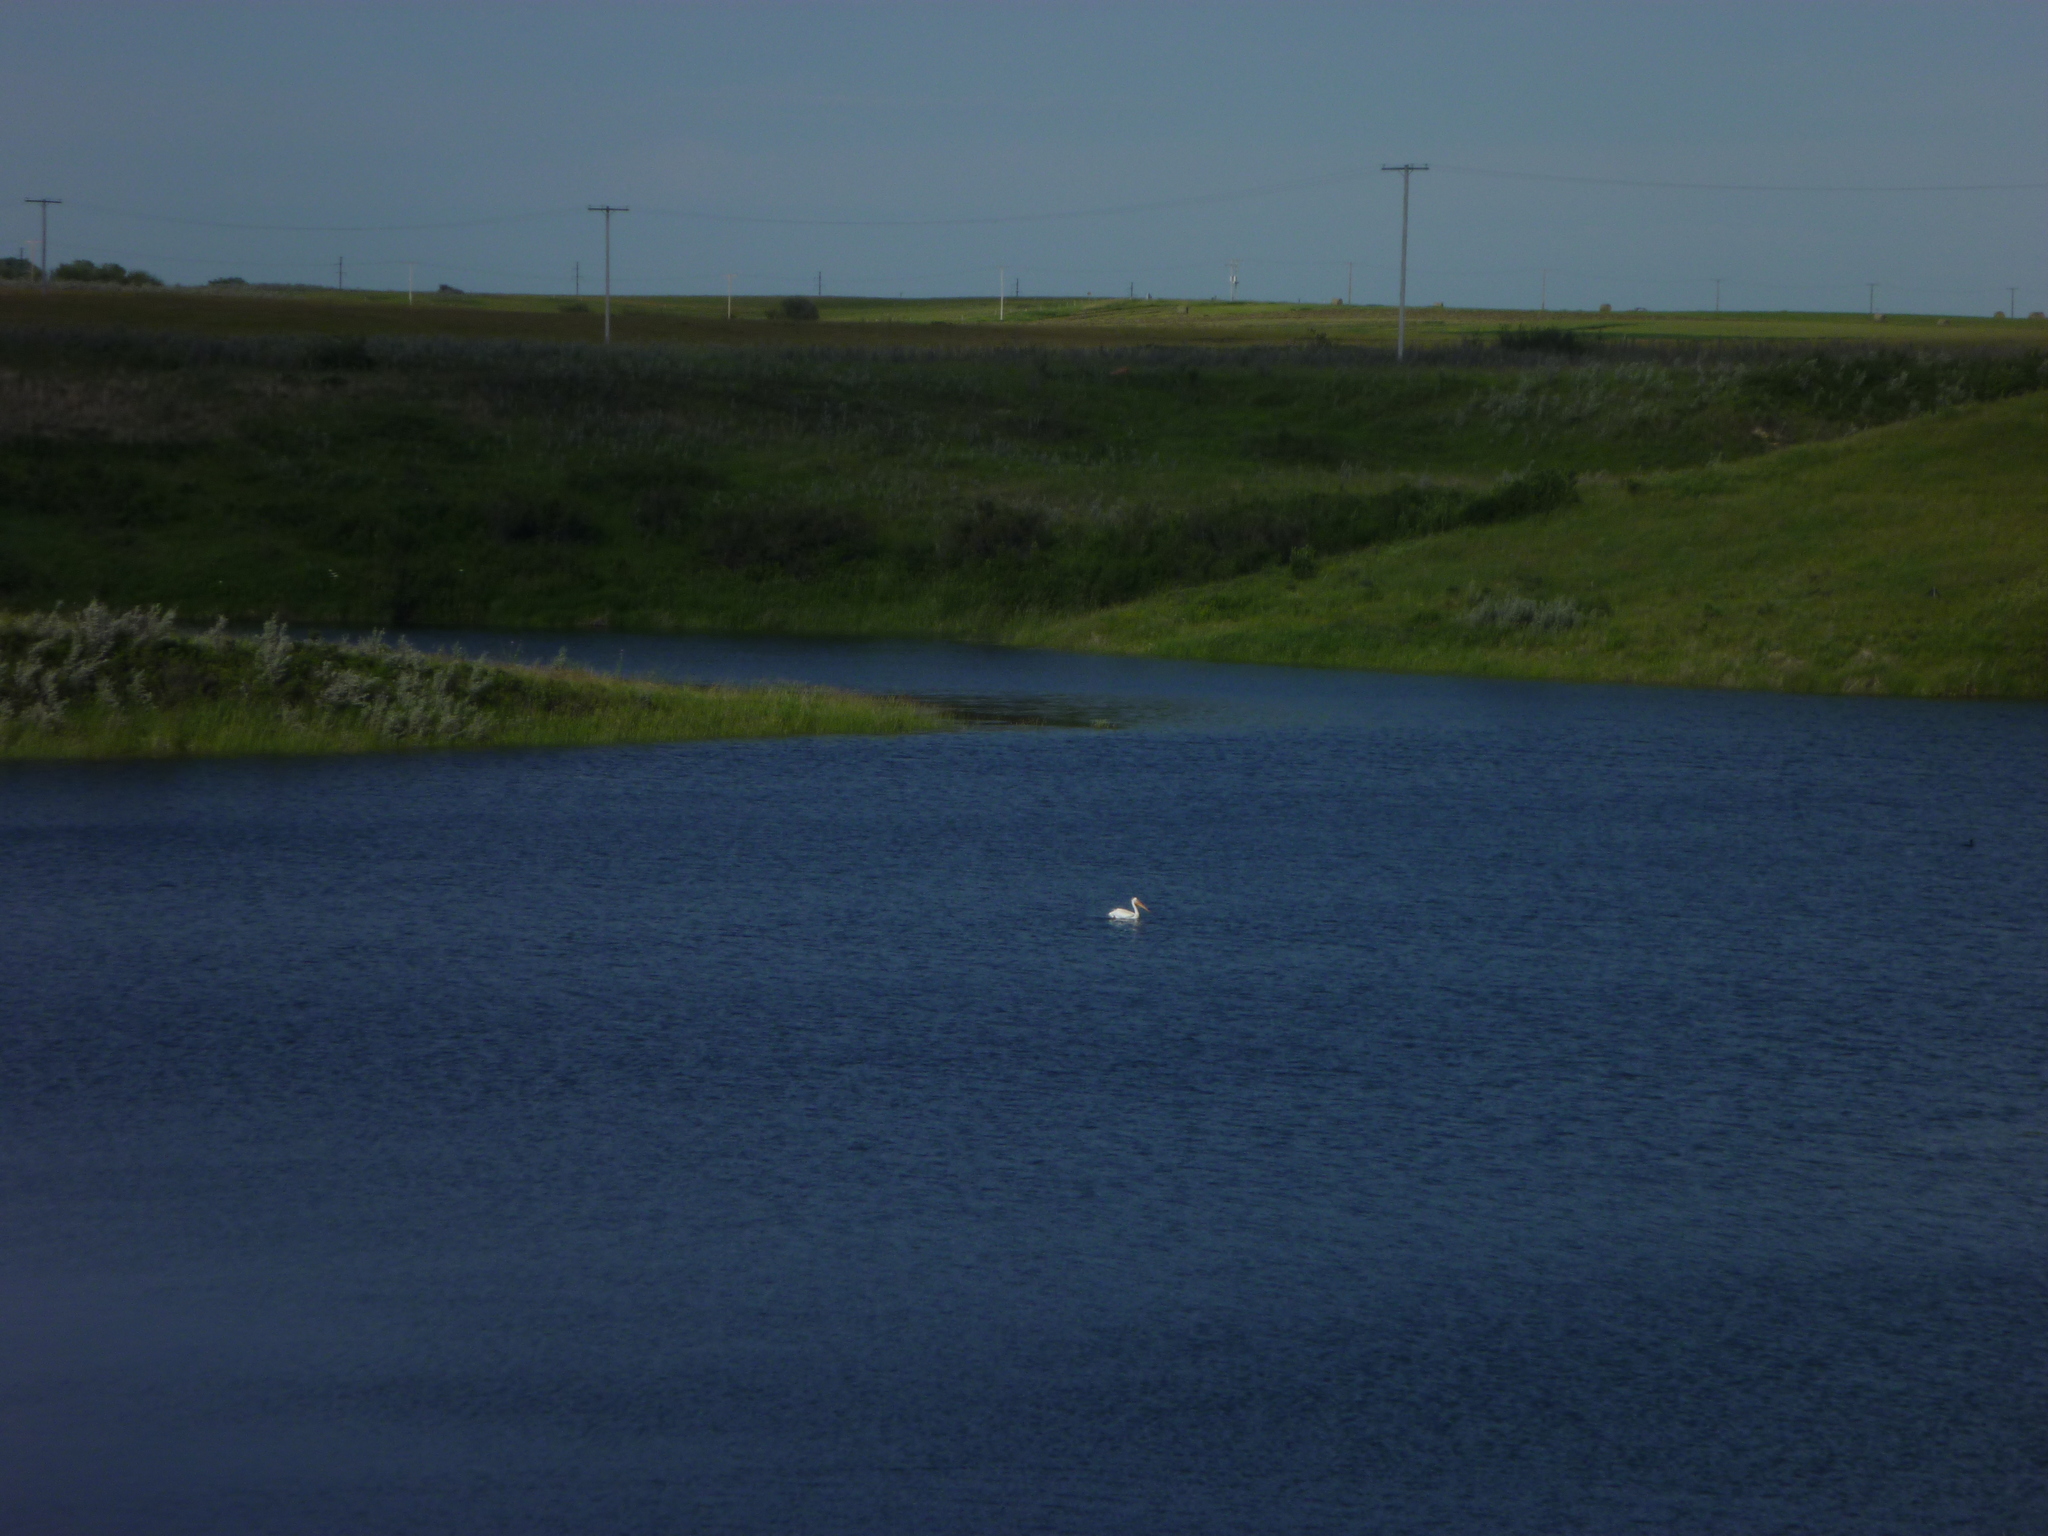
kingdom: Animalia
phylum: Chordata
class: Aves
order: Pelecaniformes
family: Pelecanidae
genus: Pelecanus
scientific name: Pelecanus erythrorhynchos
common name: American white pelican
